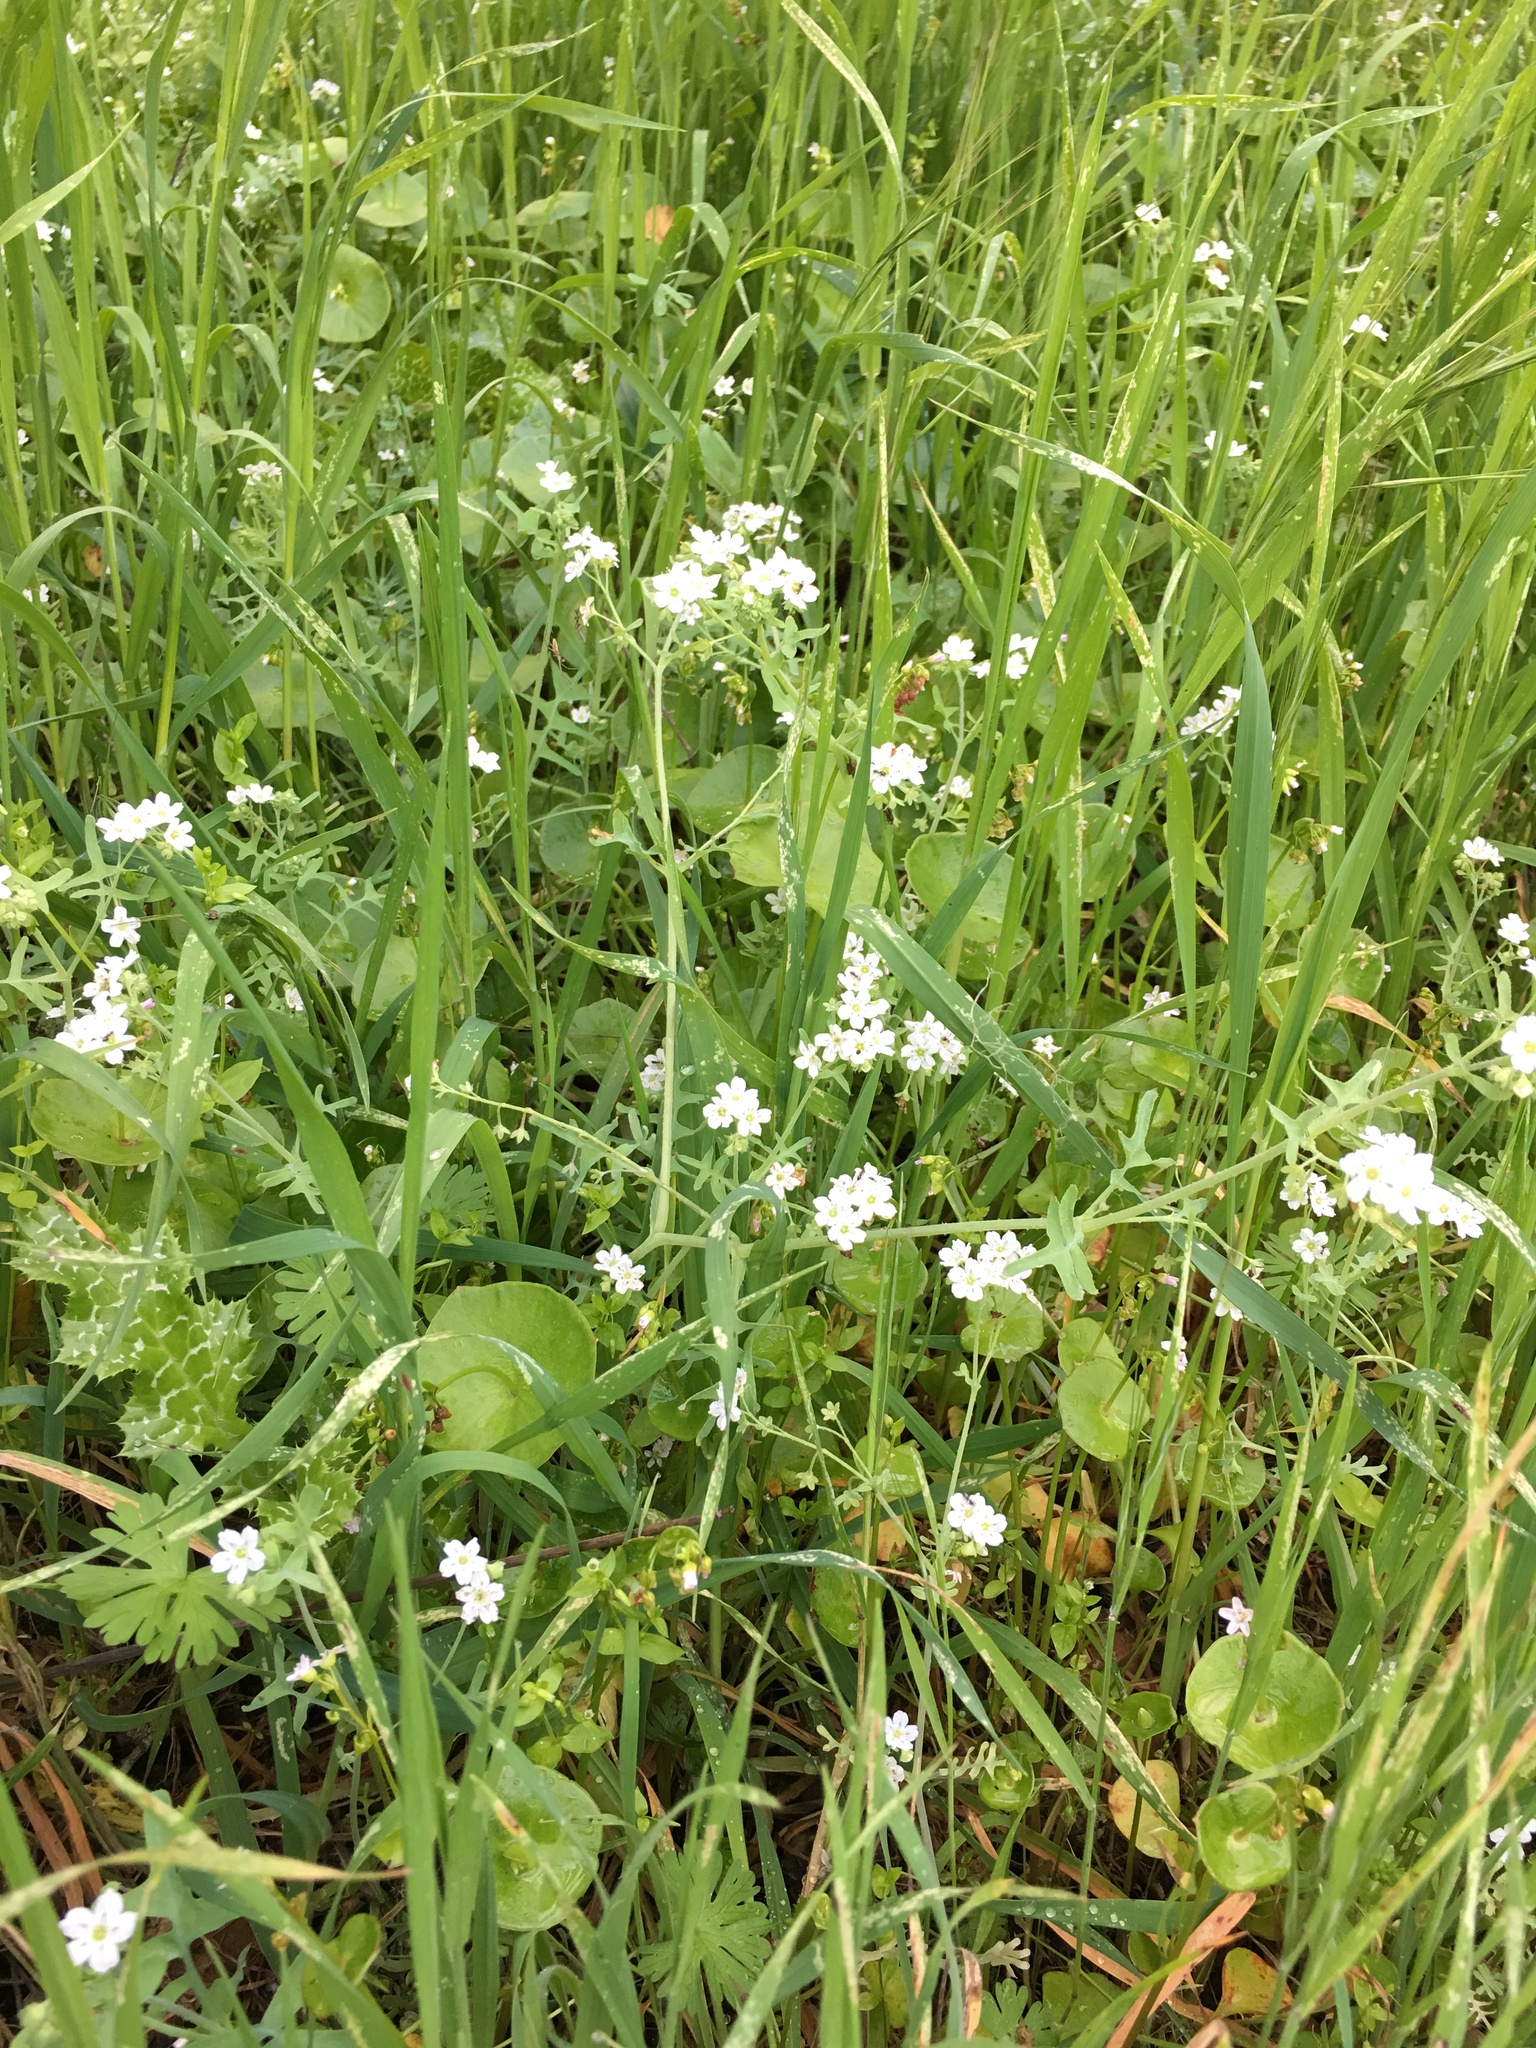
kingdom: Plantae
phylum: Tracheophyta
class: Magnoliopsida
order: Boraginales
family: Hydrophyllaceae
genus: Pholistoma
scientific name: Pholistoma membranaceum
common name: White fiesta-flower
